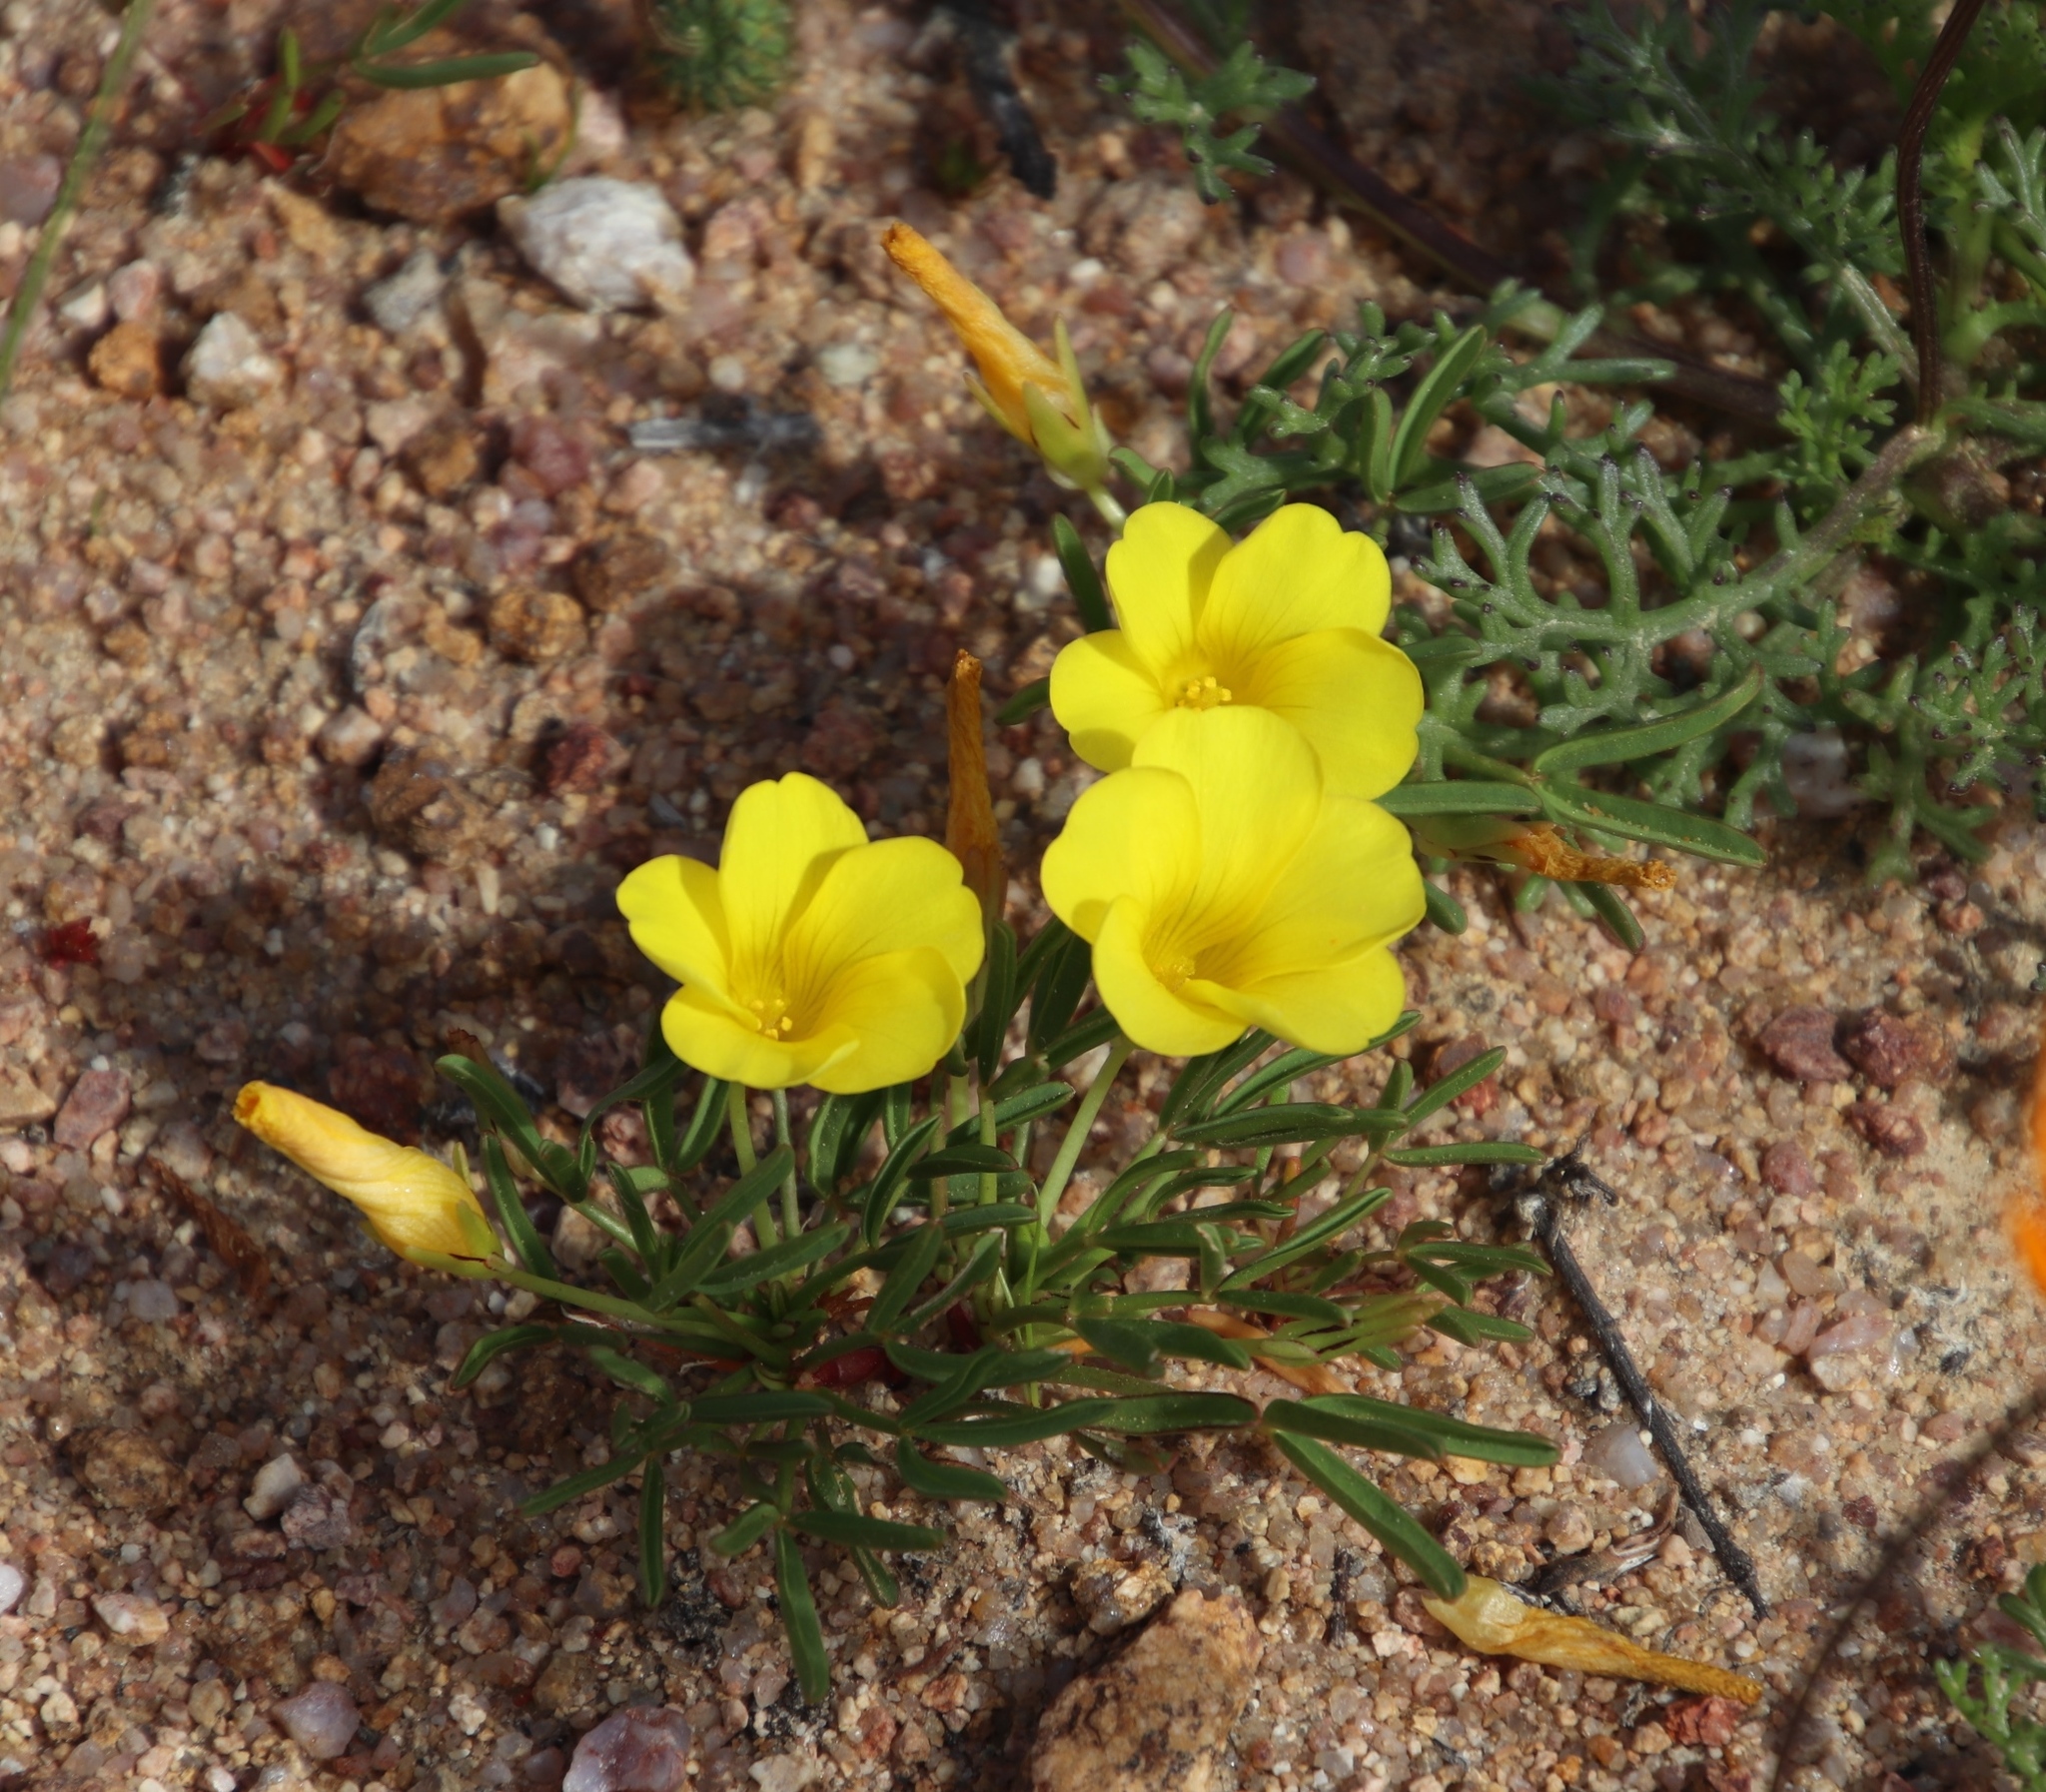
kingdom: Plantae
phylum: Tracheophyta
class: Magnoliopsida
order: Oxalidales
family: Oxalidaceae
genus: Oxalis
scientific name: Oxalis namaquana
